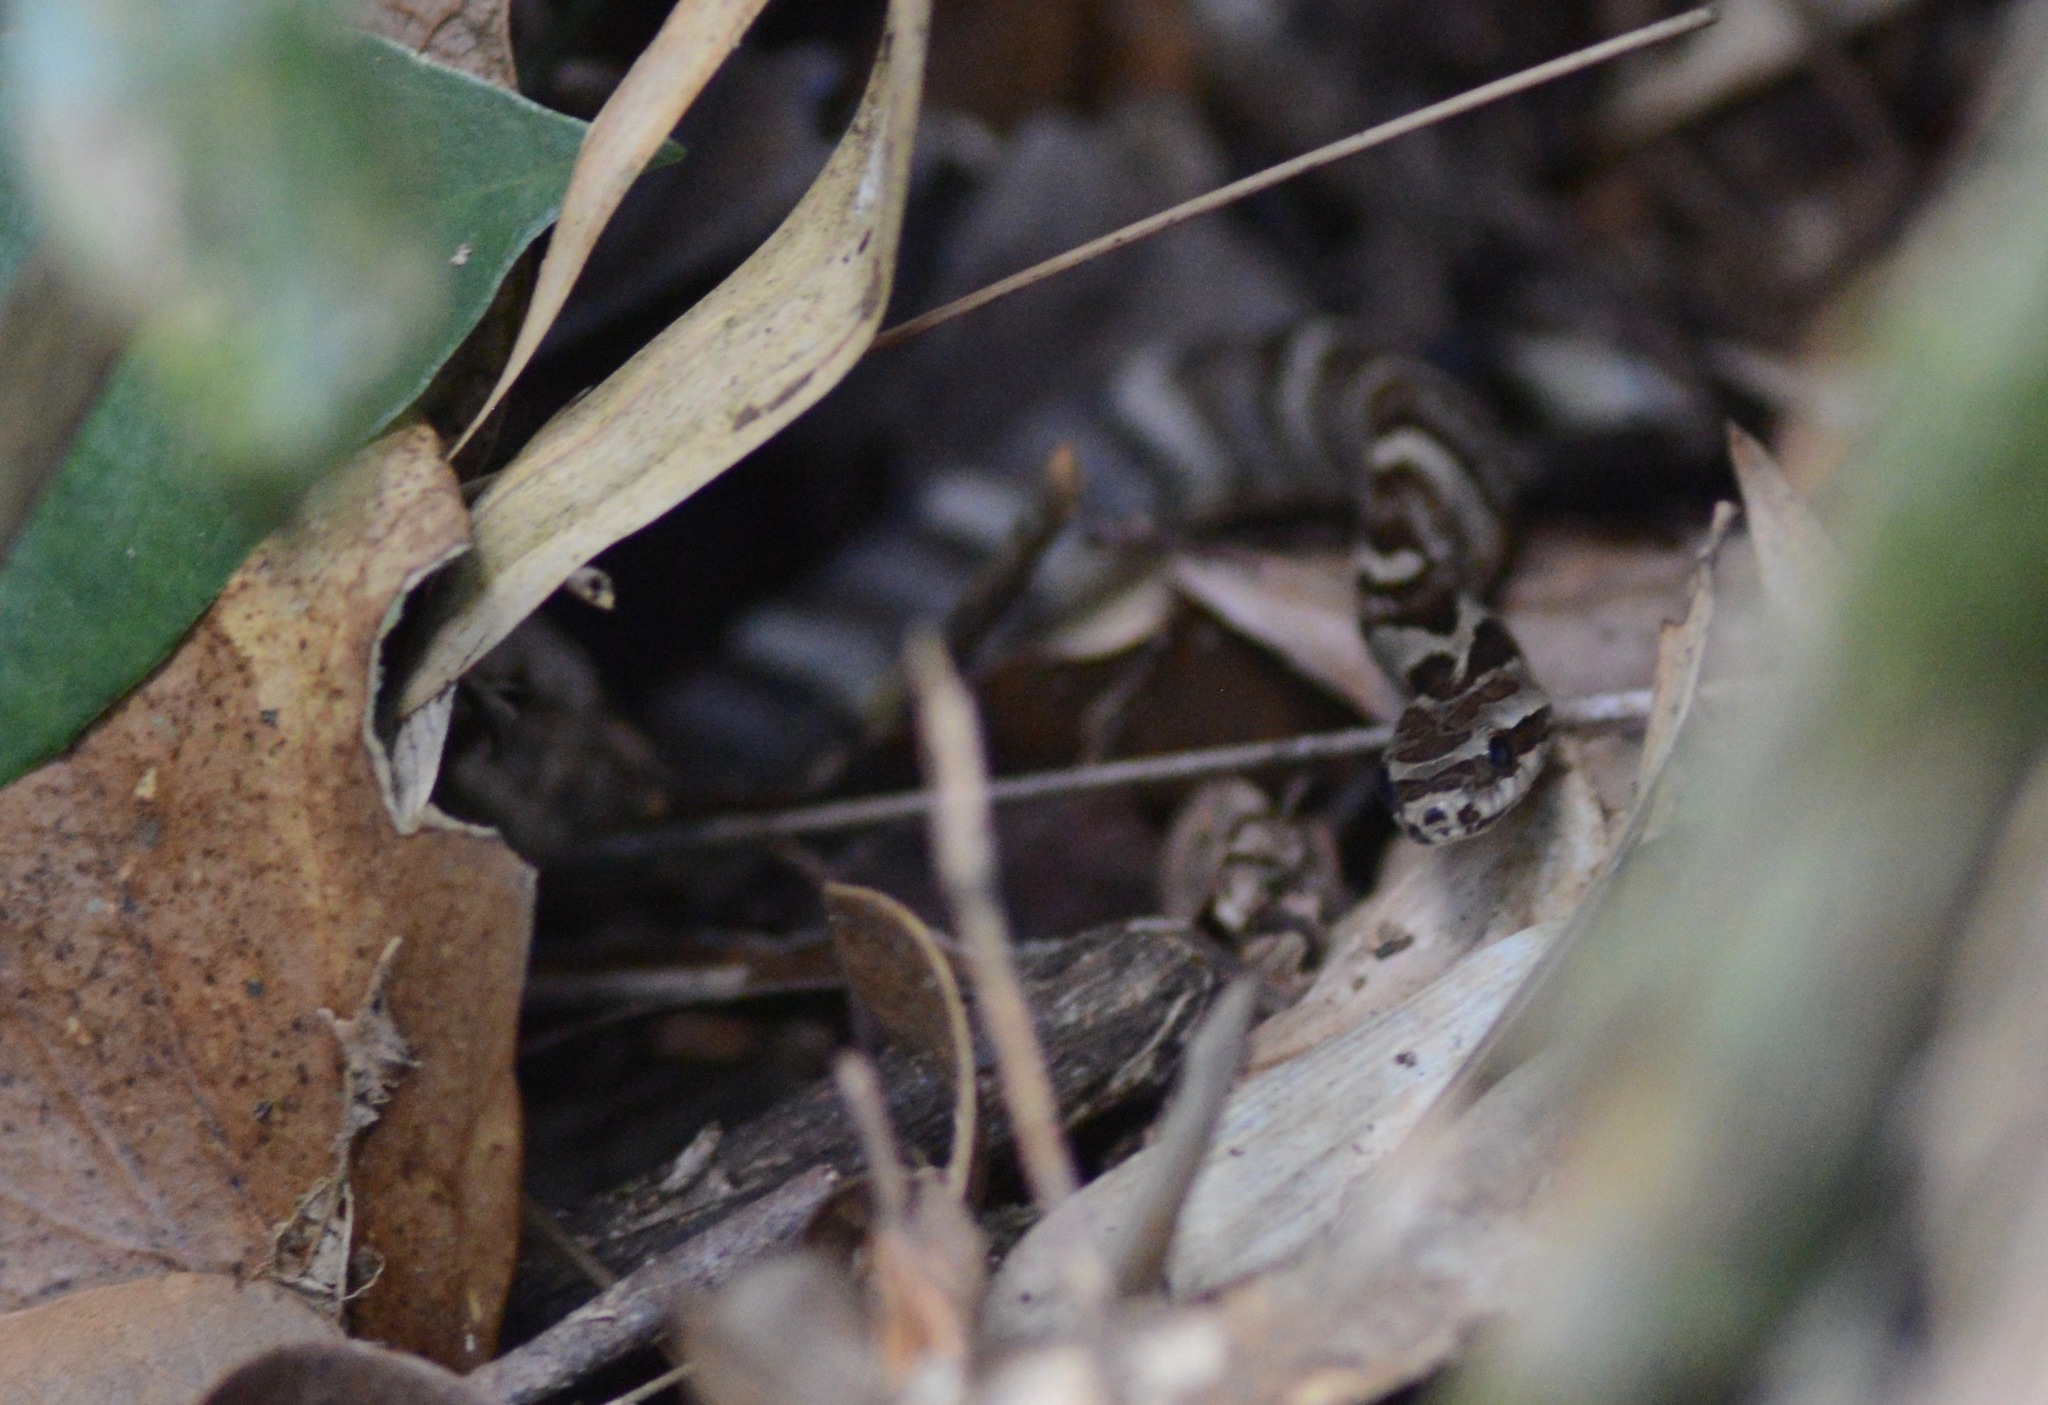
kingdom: Animalia
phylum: Chordata
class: Squamata
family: Colubridae
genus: Xenodon
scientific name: Xenodon neuwiedii
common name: Neuwied's false fer-de-lance
